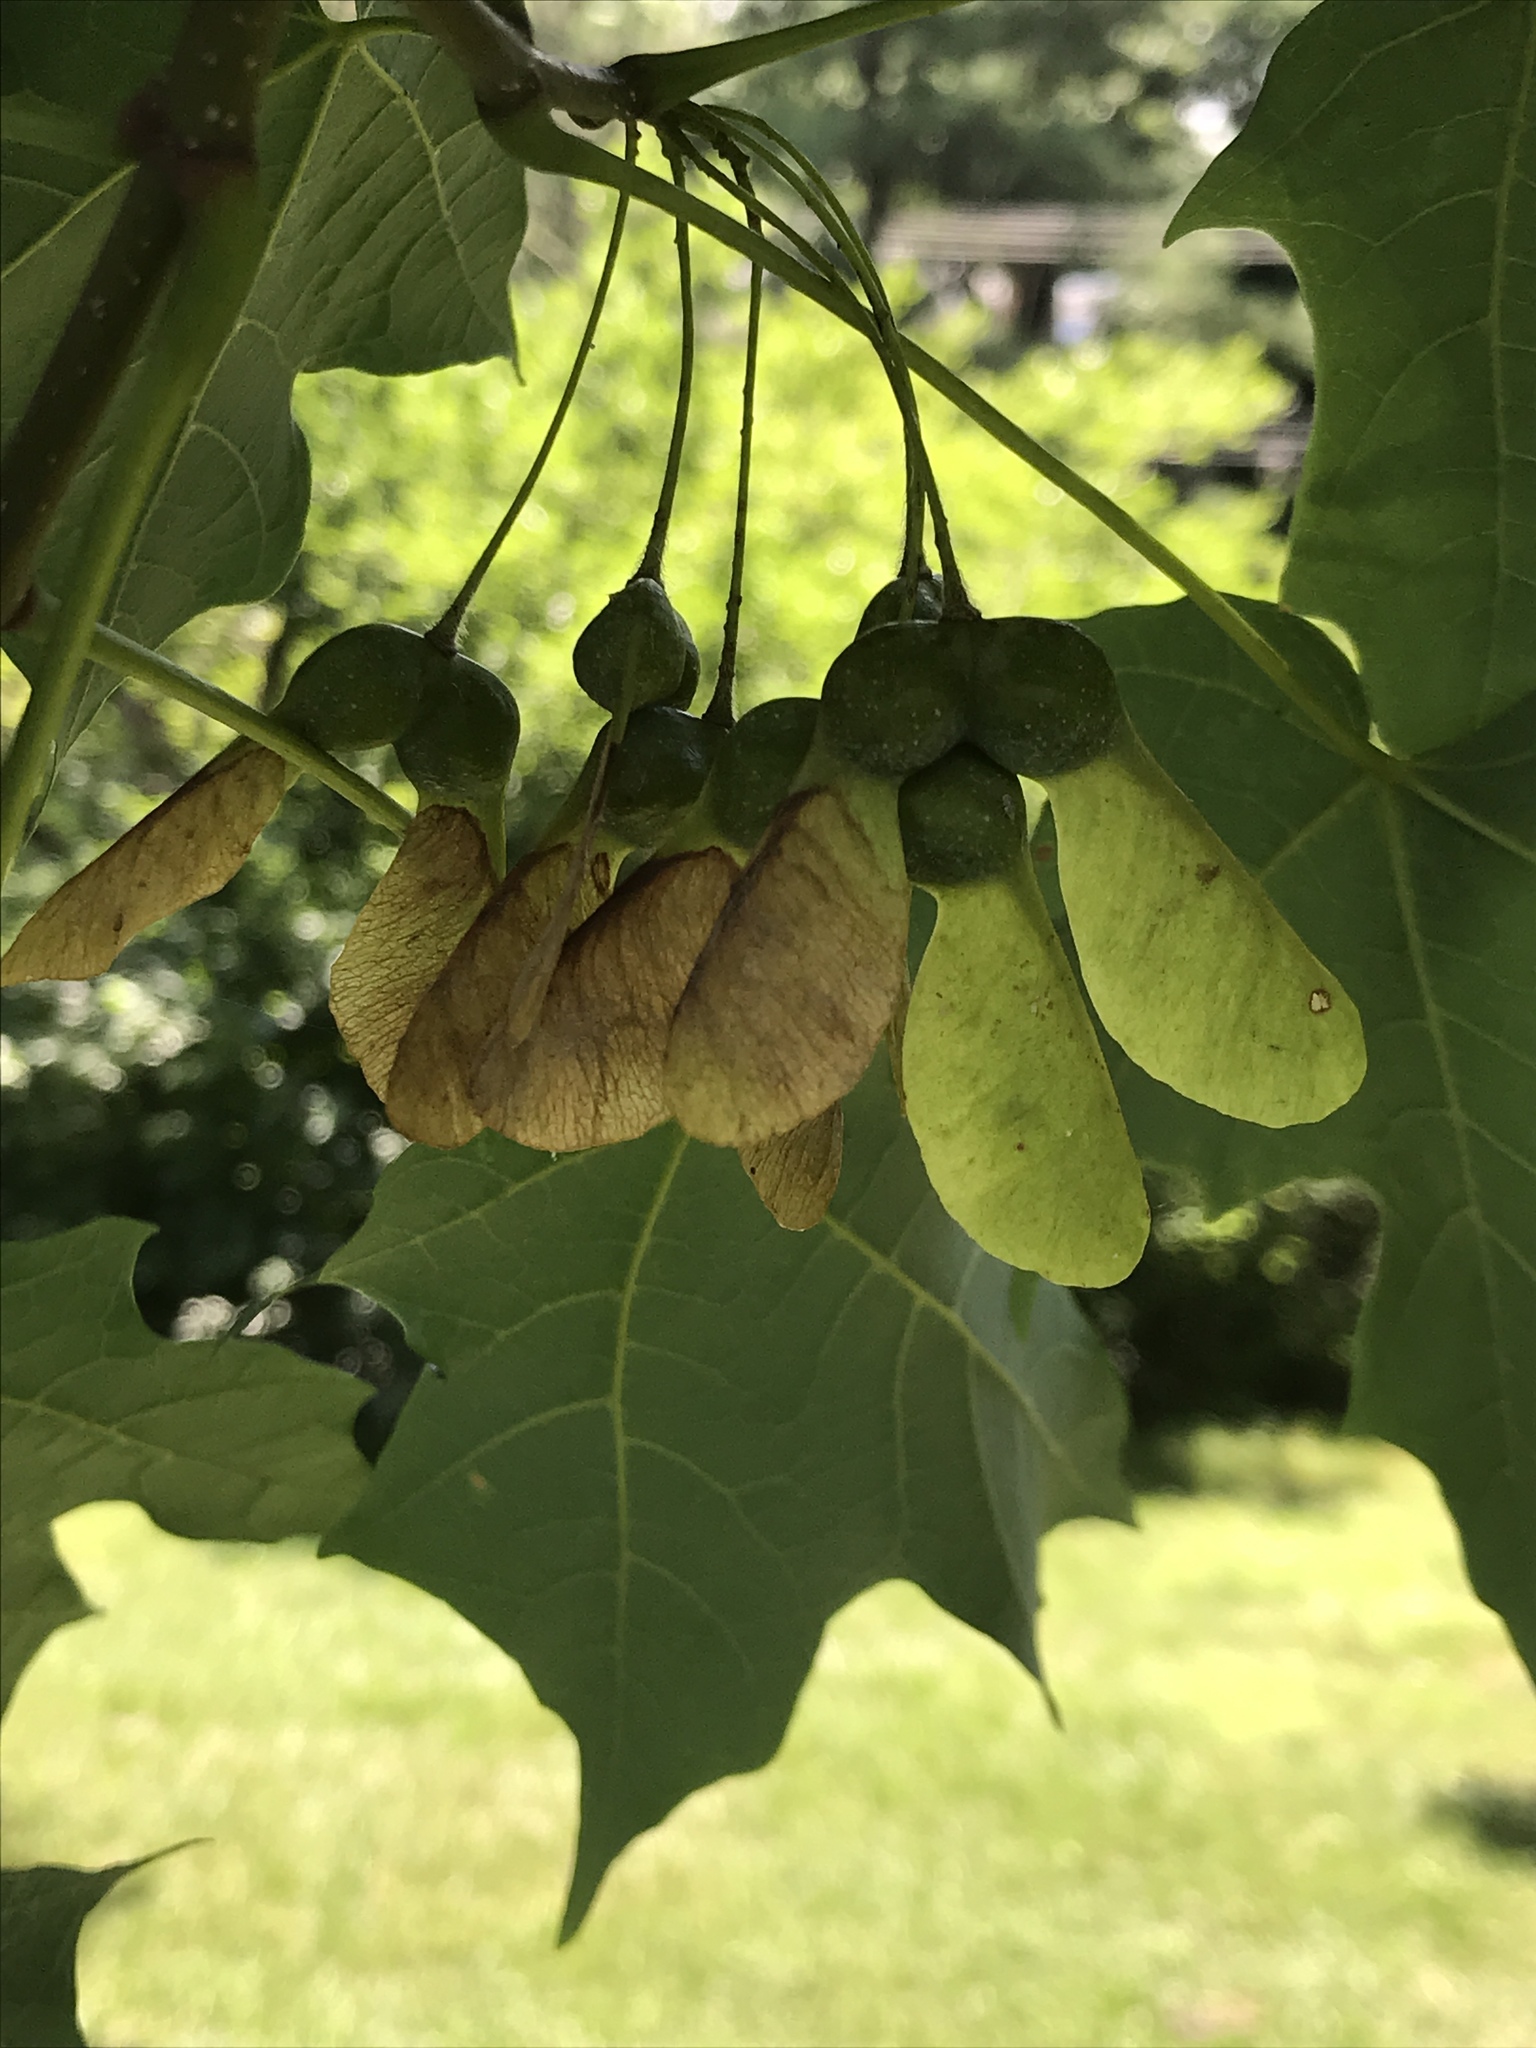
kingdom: Plantae
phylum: Tracheophyta
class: Magnoliopsida
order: Sapindales
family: Sapindaceae
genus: Acer
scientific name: Acer saccharum
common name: Sugar maple
